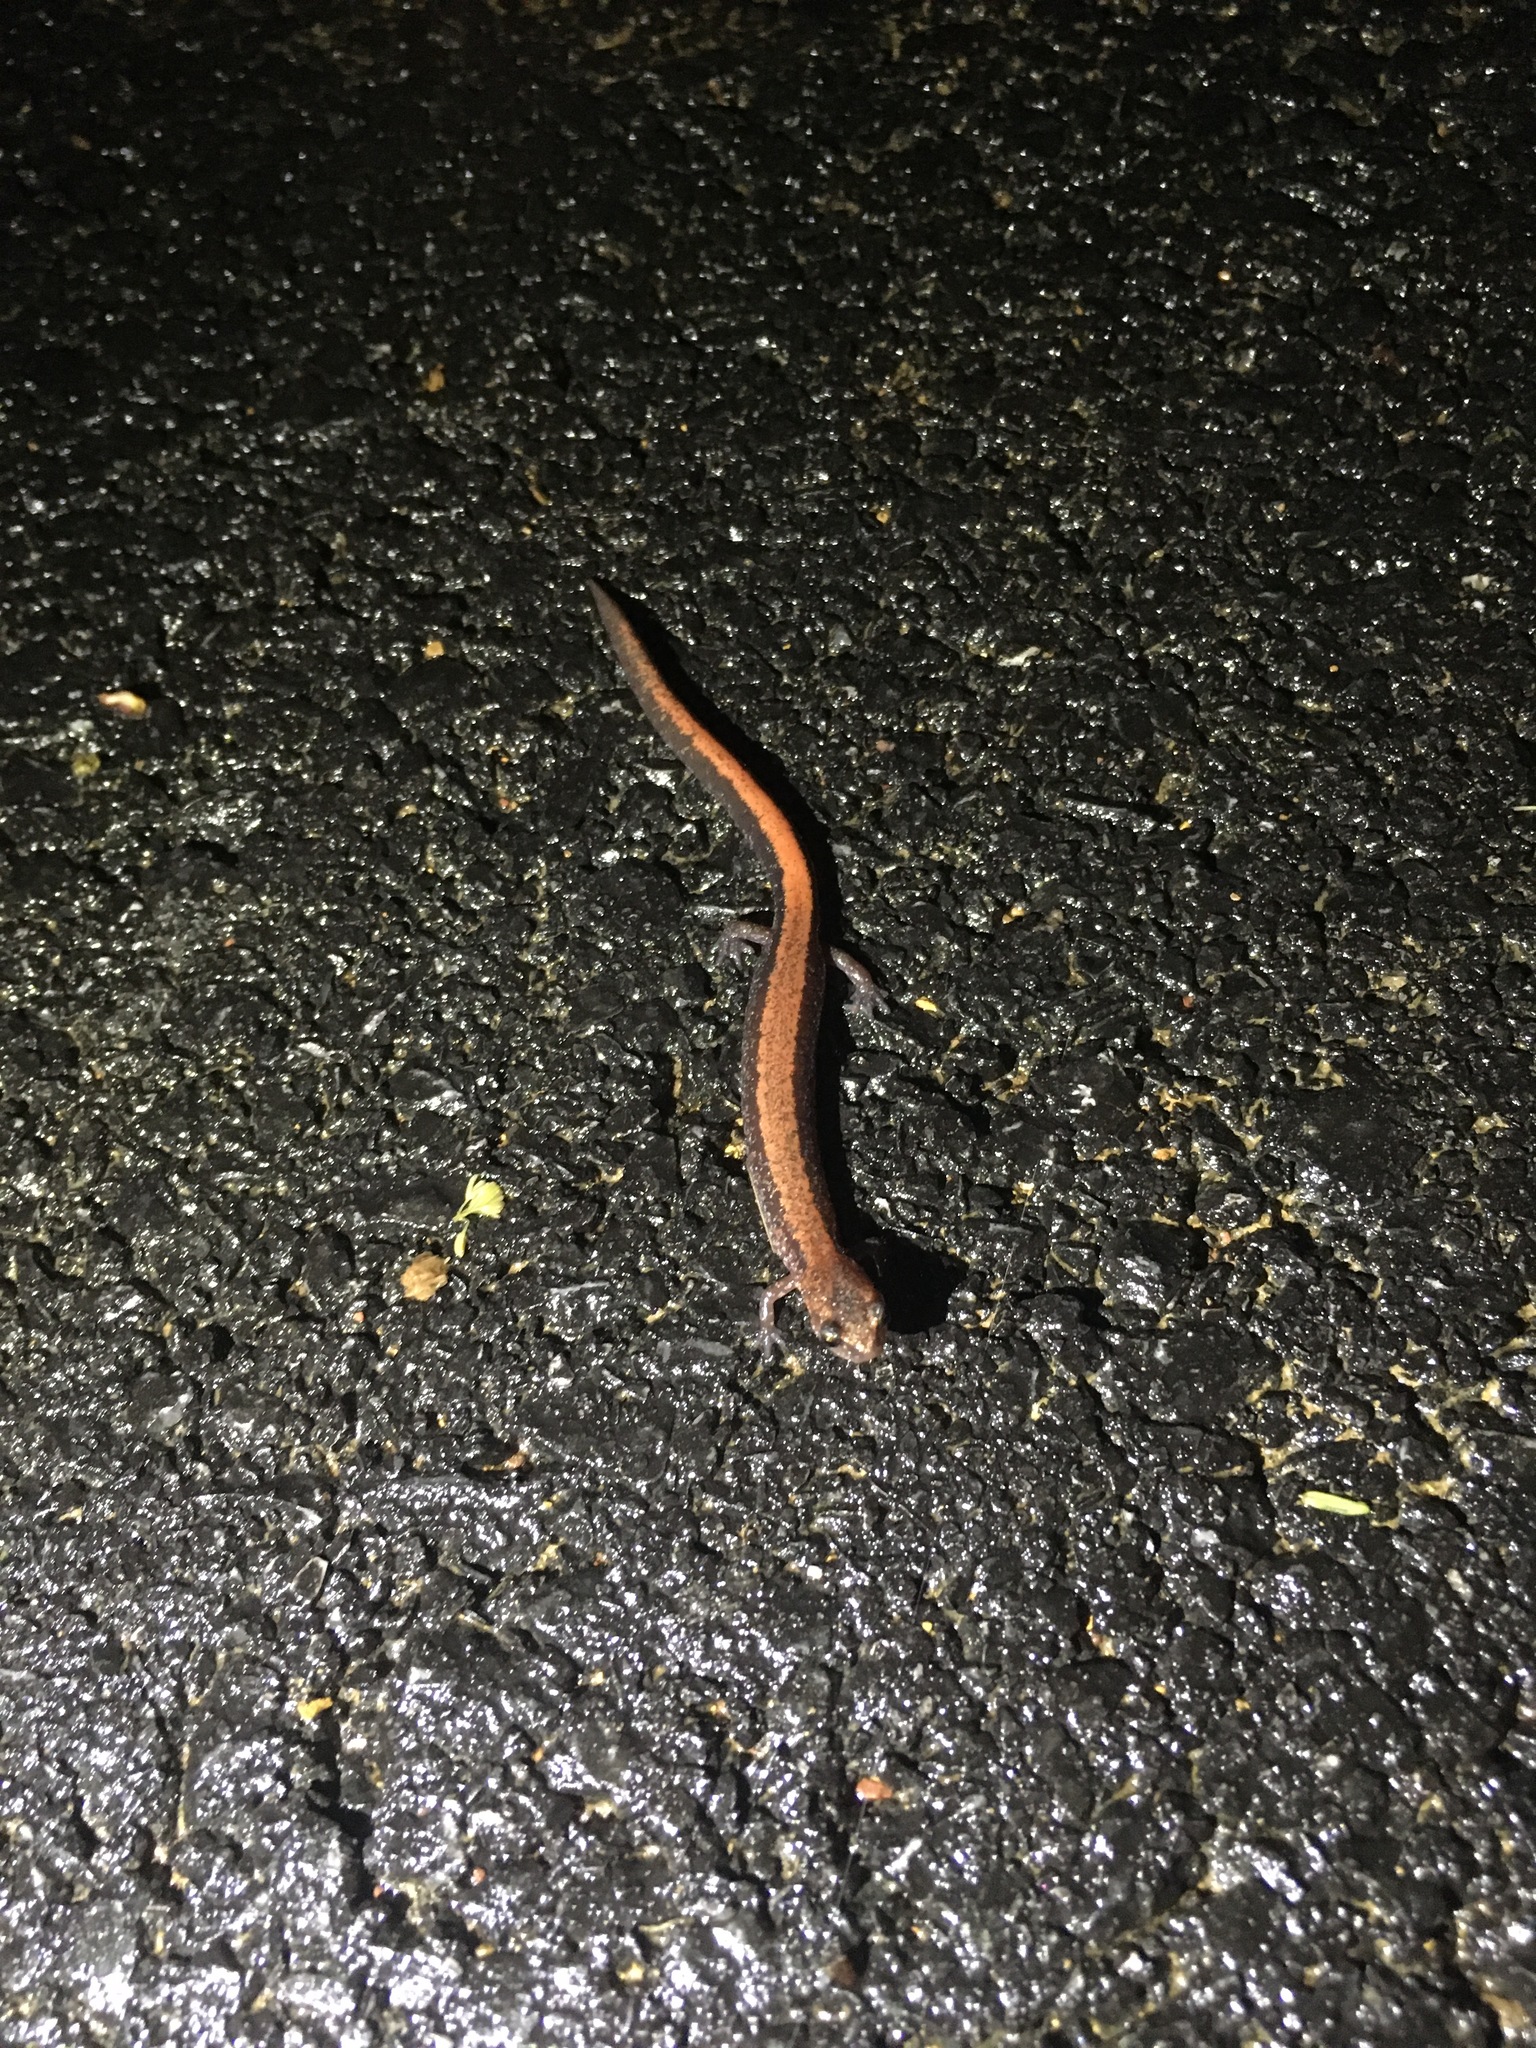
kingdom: Animalia
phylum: Chordata
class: Amphibia
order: Caudata
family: Plethodontidae
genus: Plethodon
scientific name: Plethodon cinereus
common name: Redback salamander
